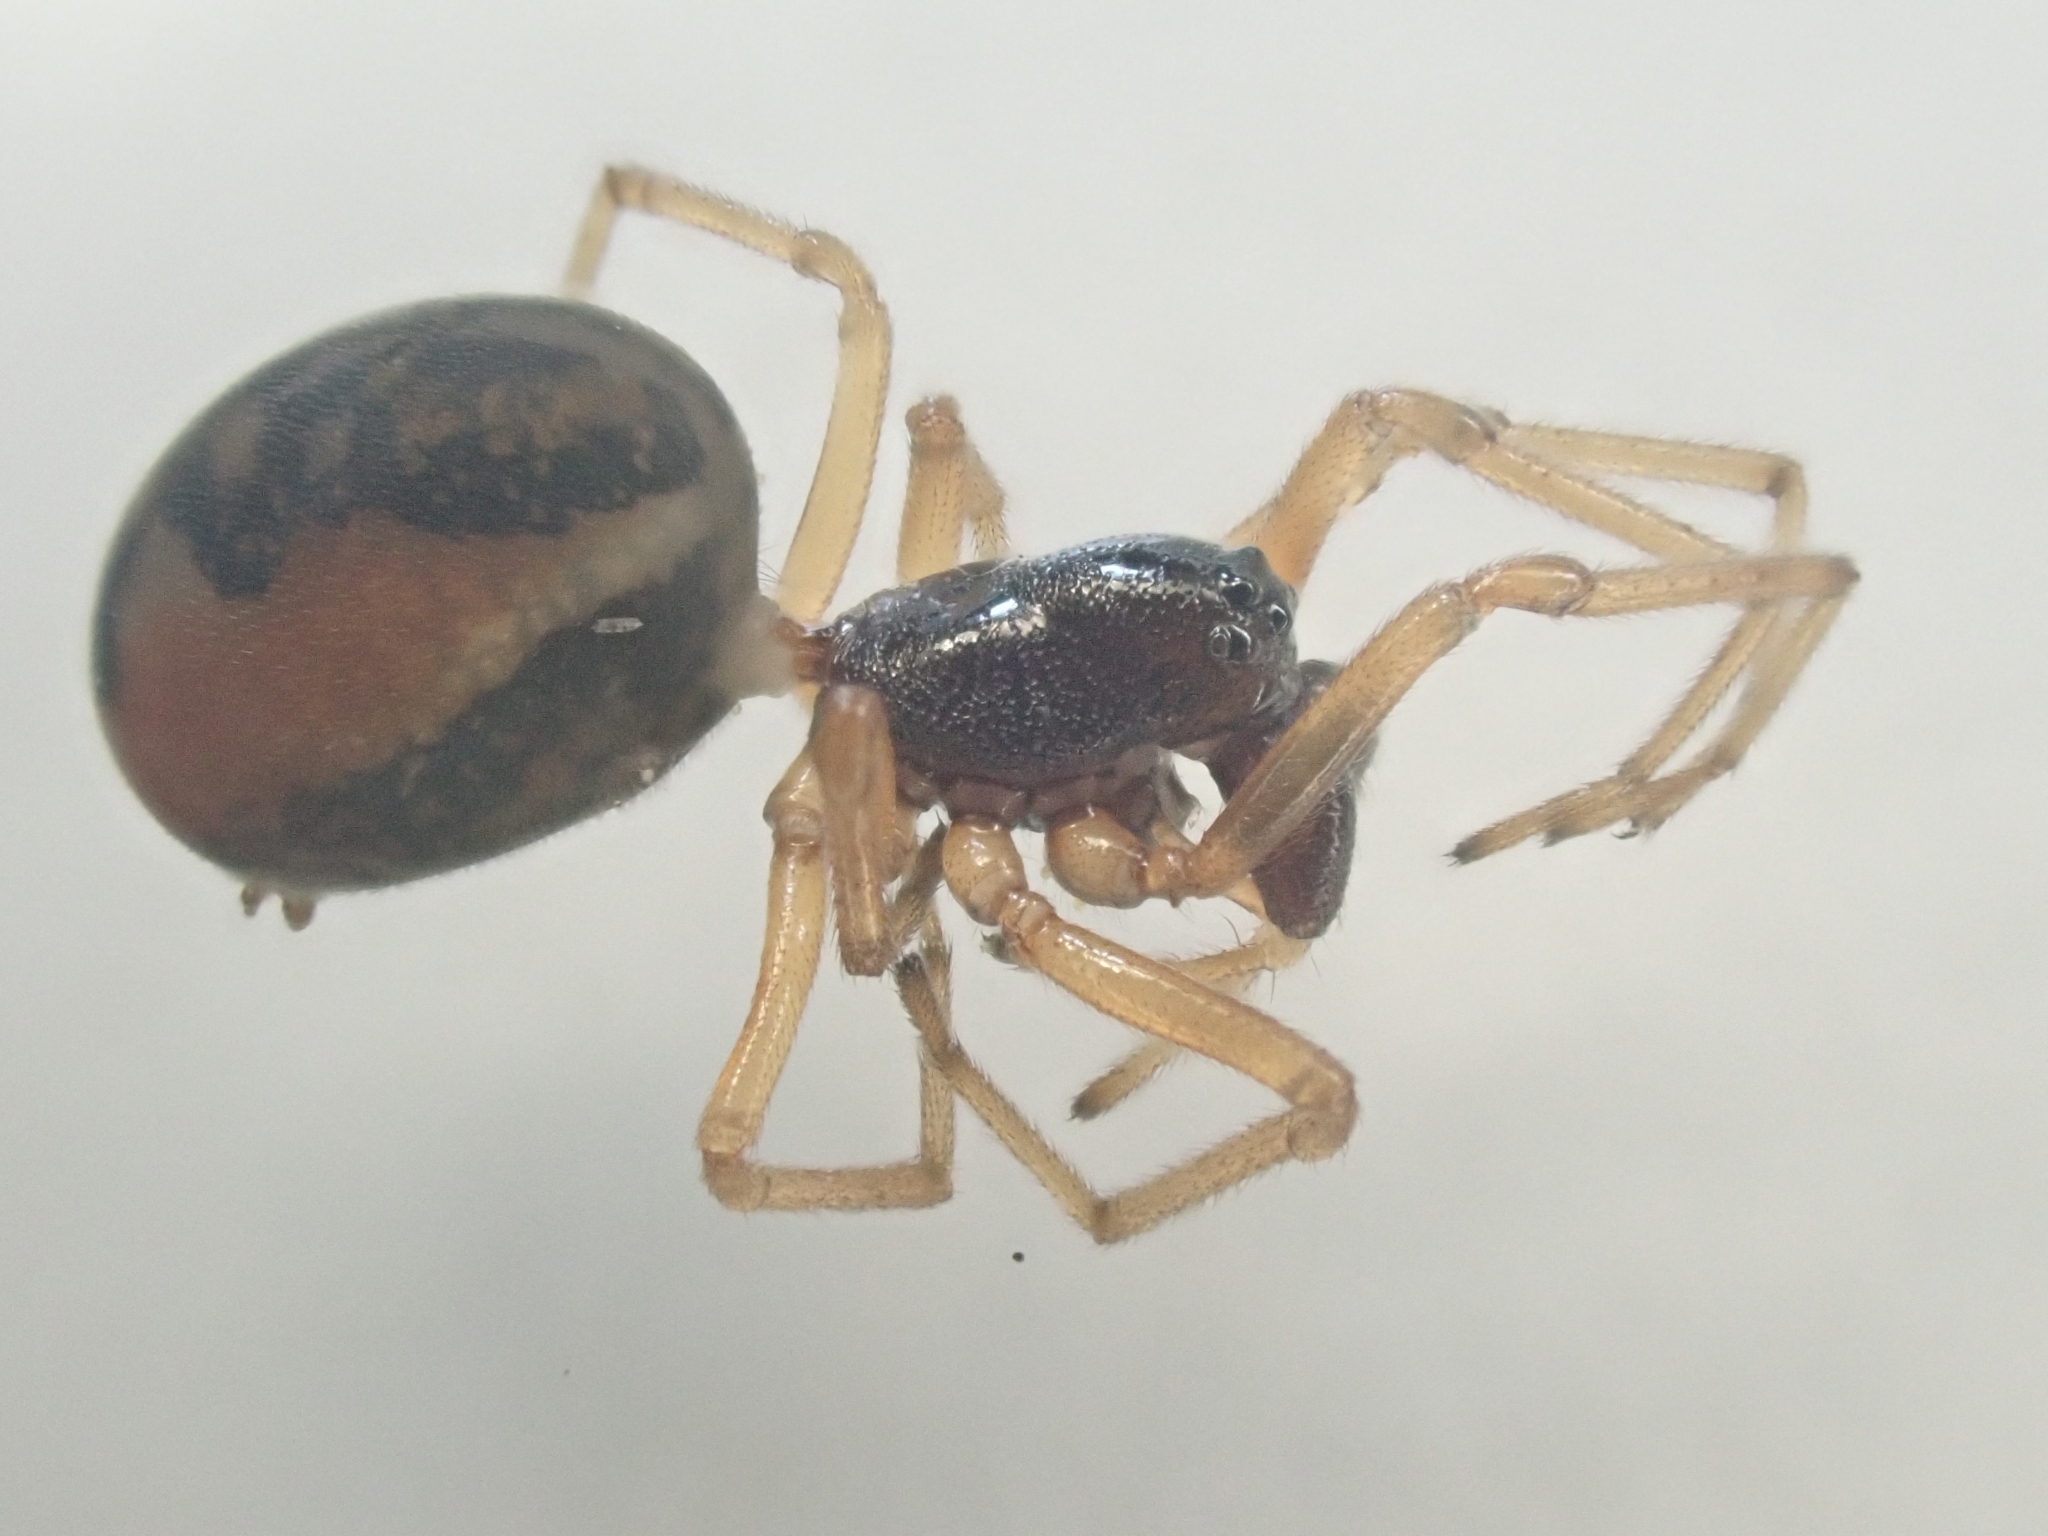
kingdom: Animalia
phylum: Arthropoda
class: Arachnida
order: Araneae
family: Tetragnathidae
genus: Pachygnatha
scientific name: Pachygnatha degeeri
